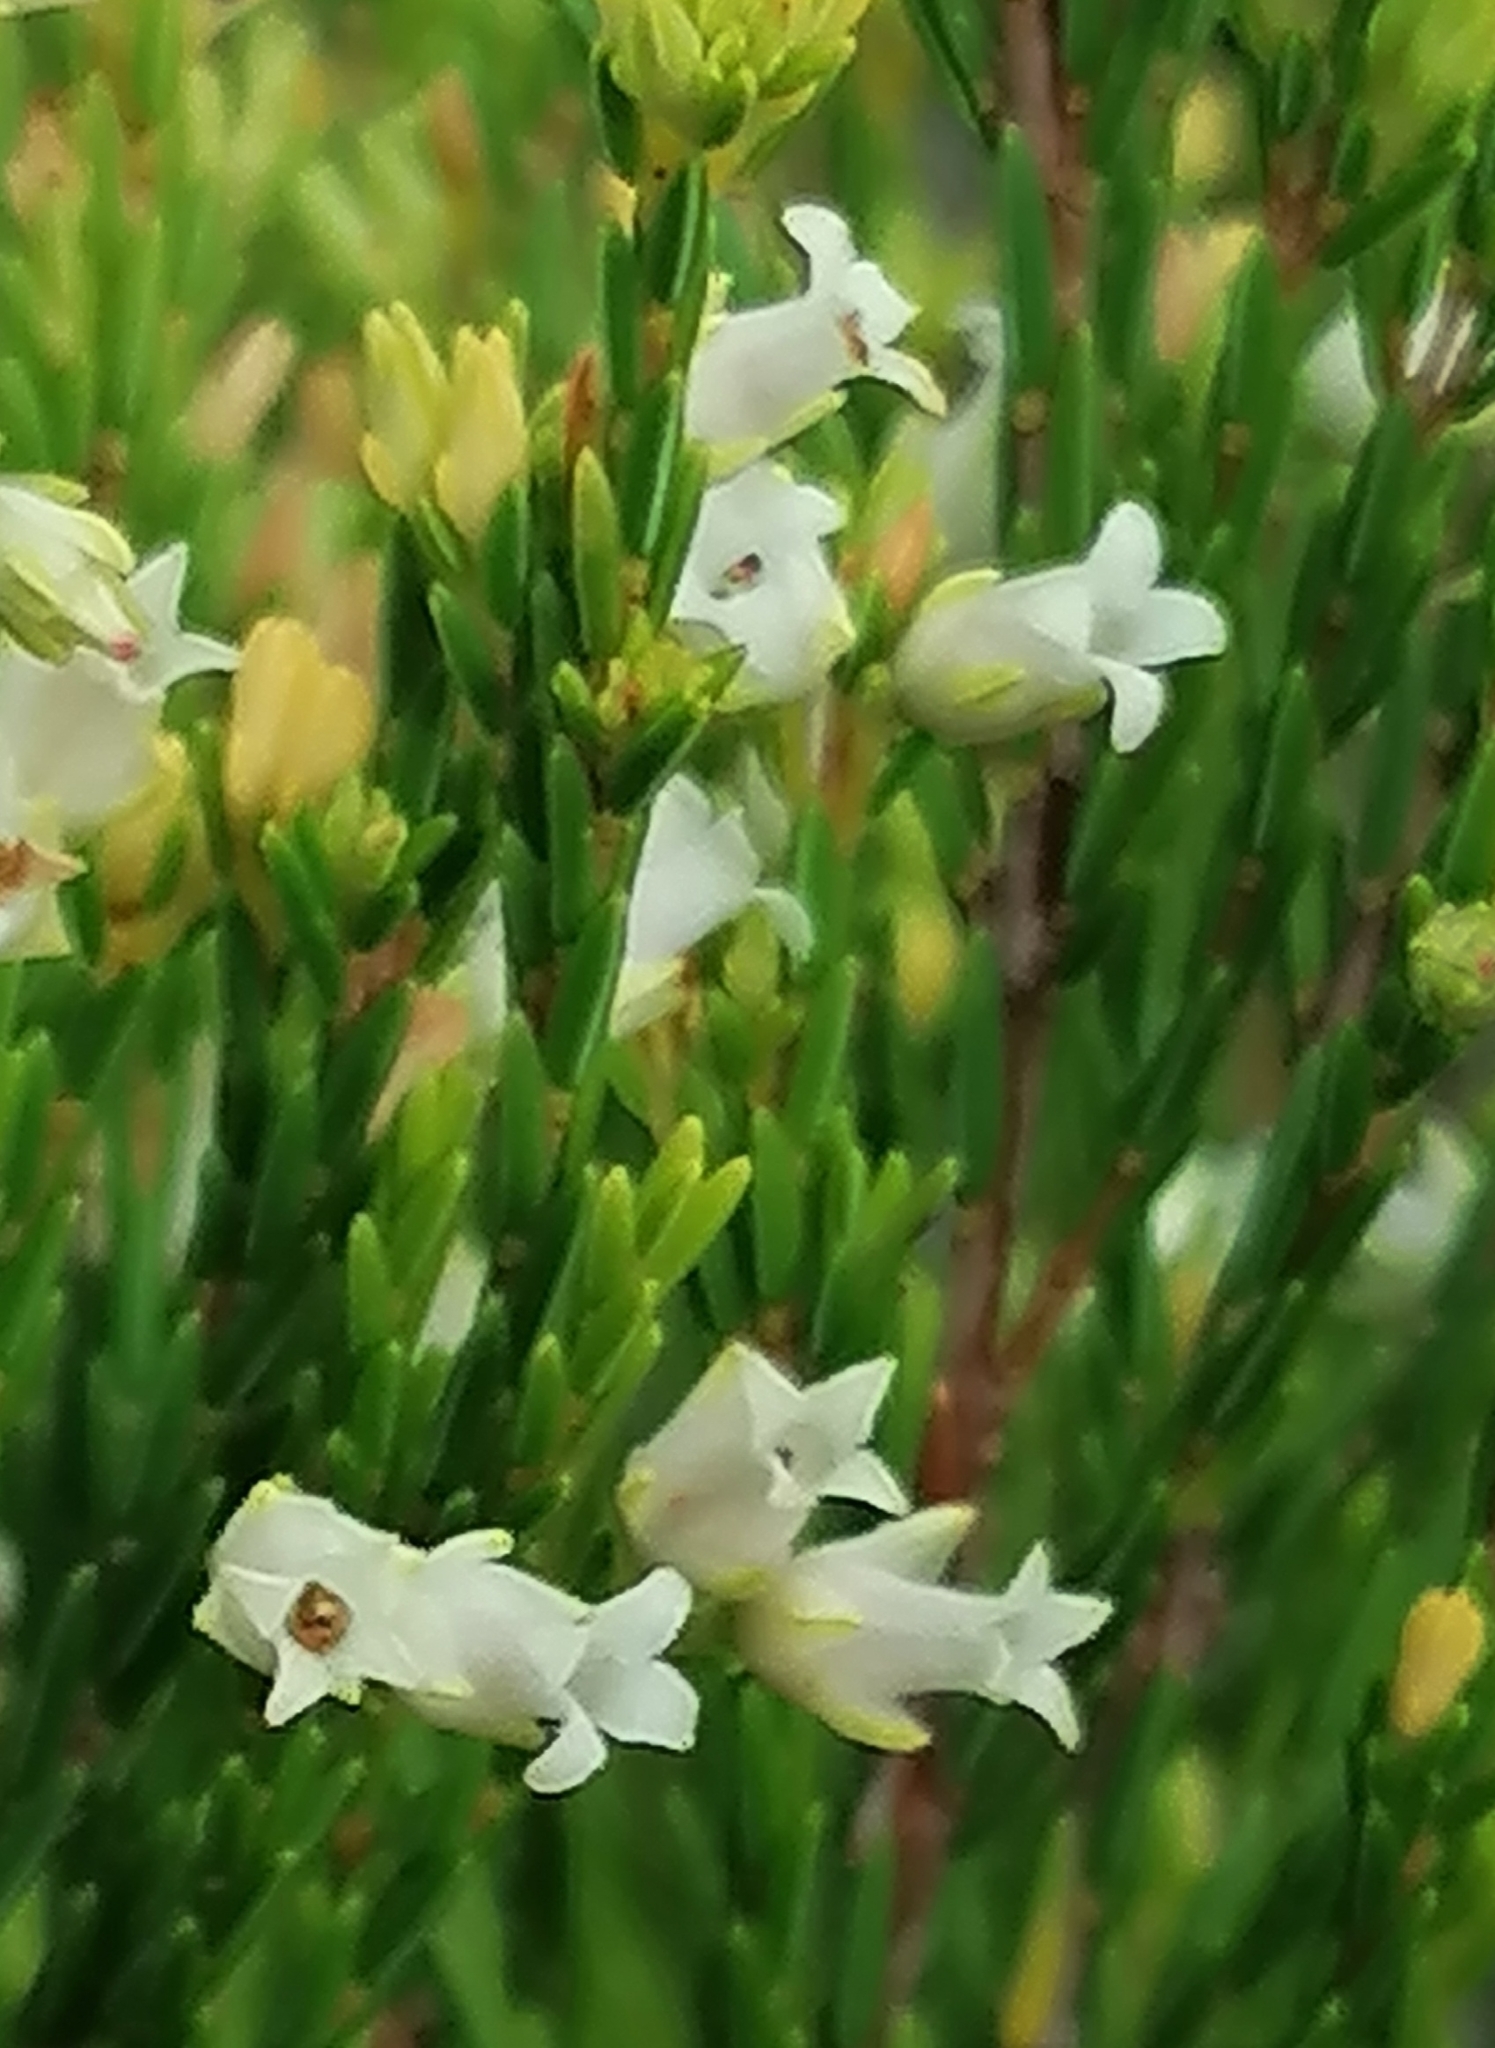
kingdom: Plantae
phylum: Tracheophyta
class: Magnoliopsida
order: Ericales
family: Ericaceae
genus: Erica
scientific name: Erica lutea
